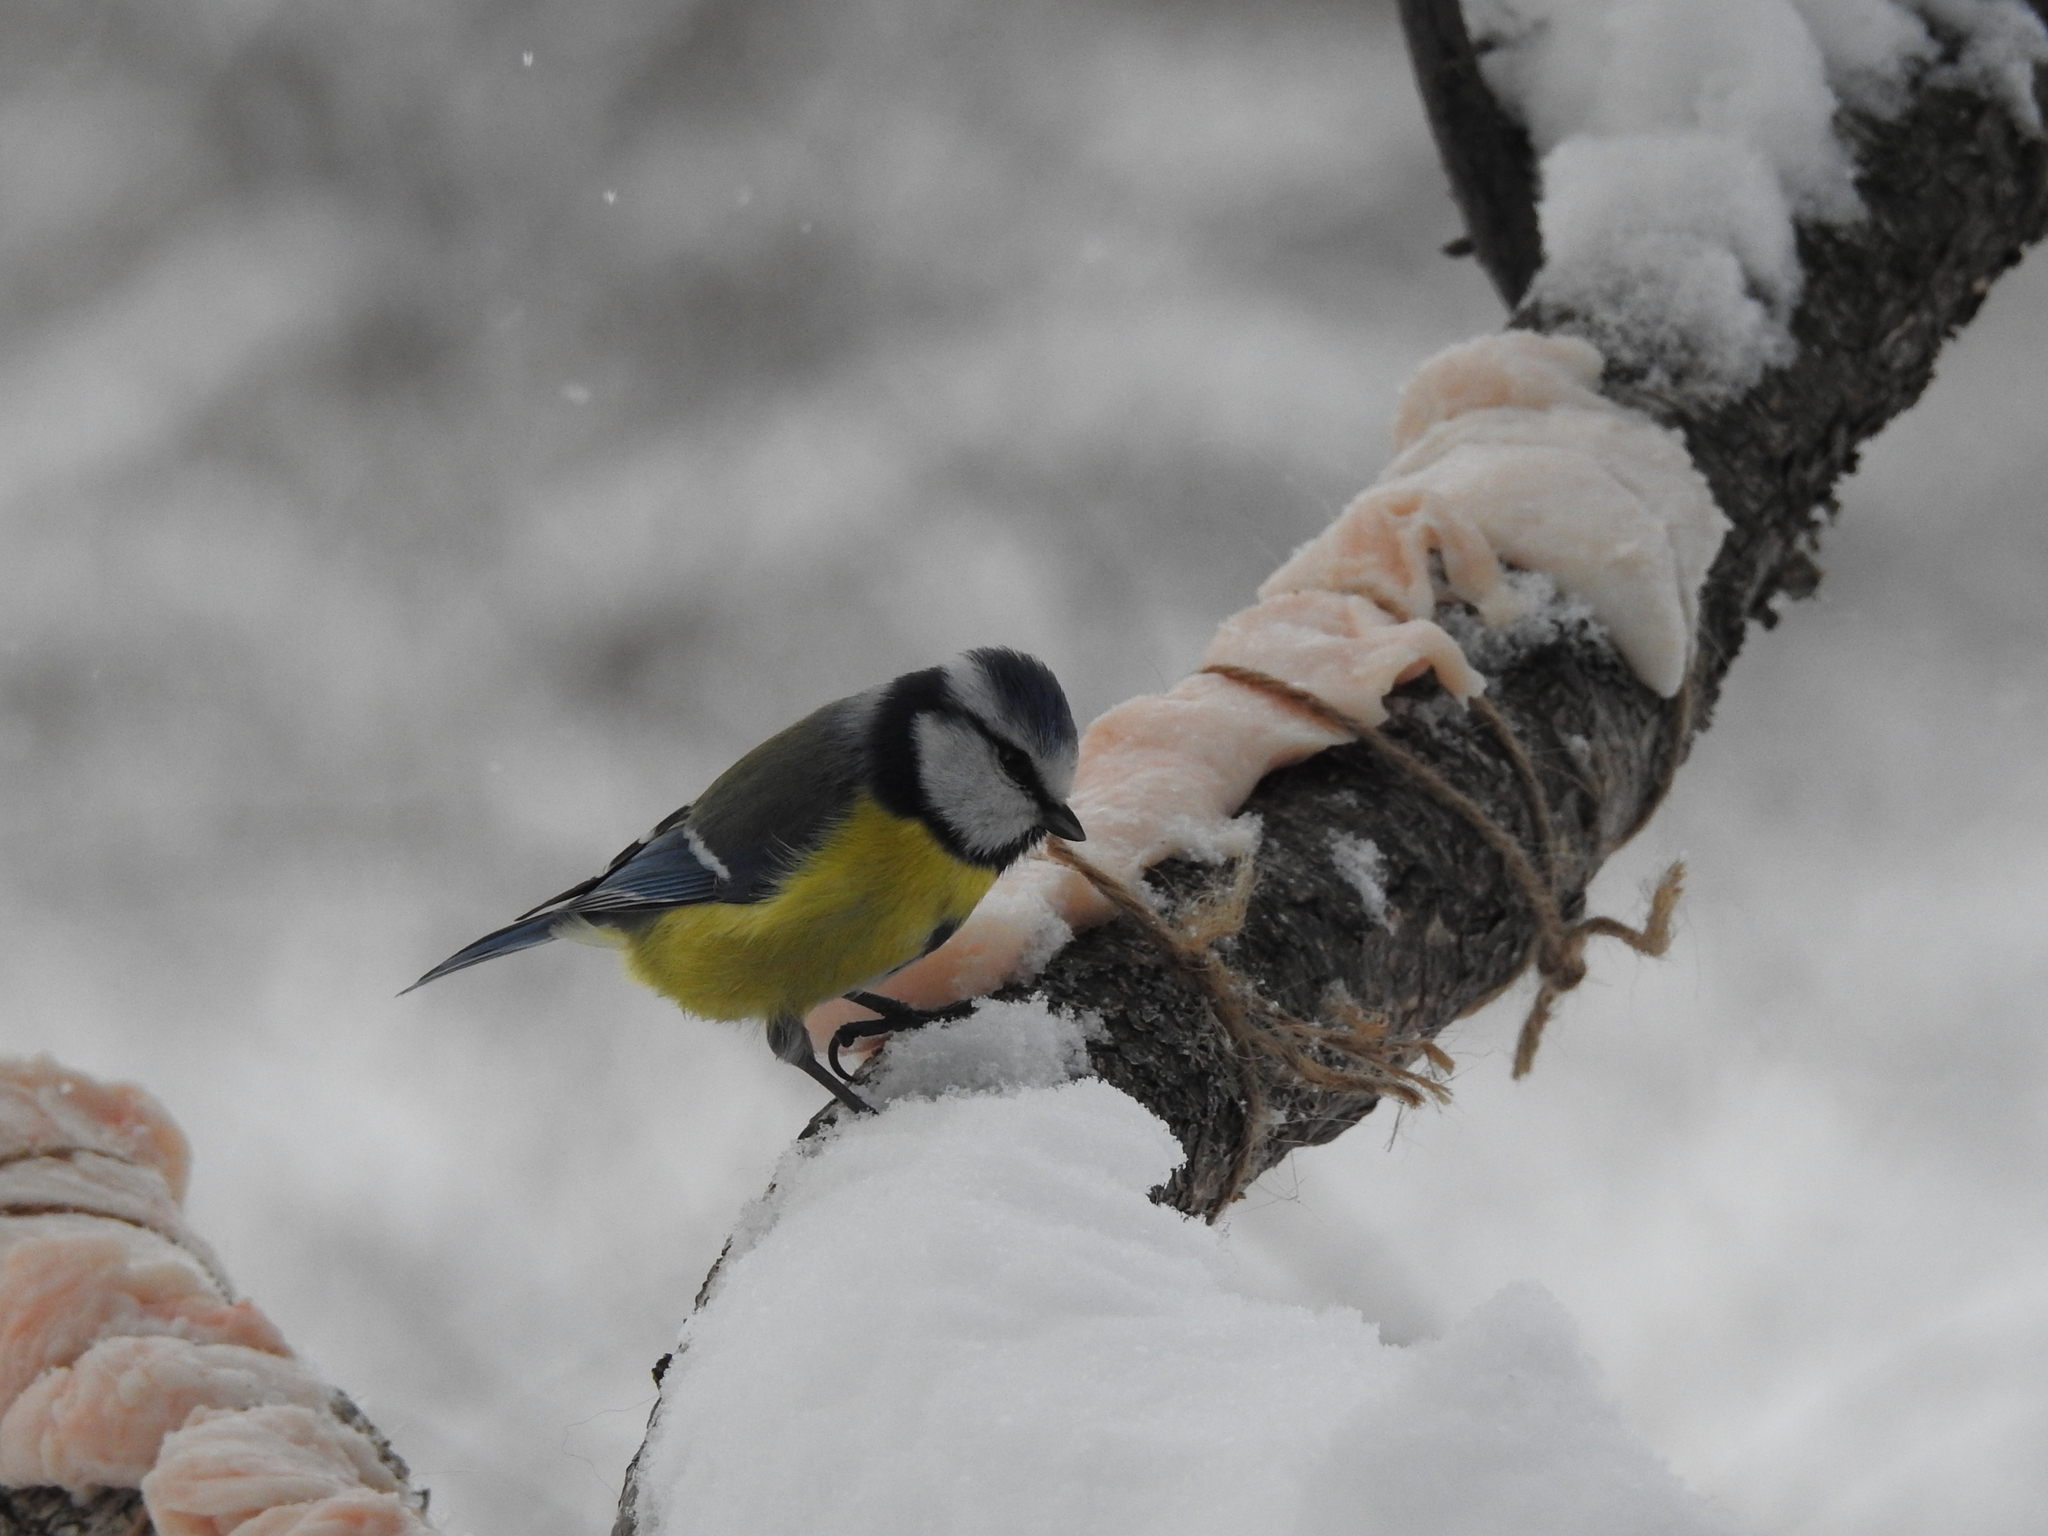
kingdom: Animalia
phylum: Chordata
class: Aves
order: Passeriformes
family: Paridae
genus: Cyanistes
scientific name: Cyanistes caeruleus
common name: Eurasian blue tit
